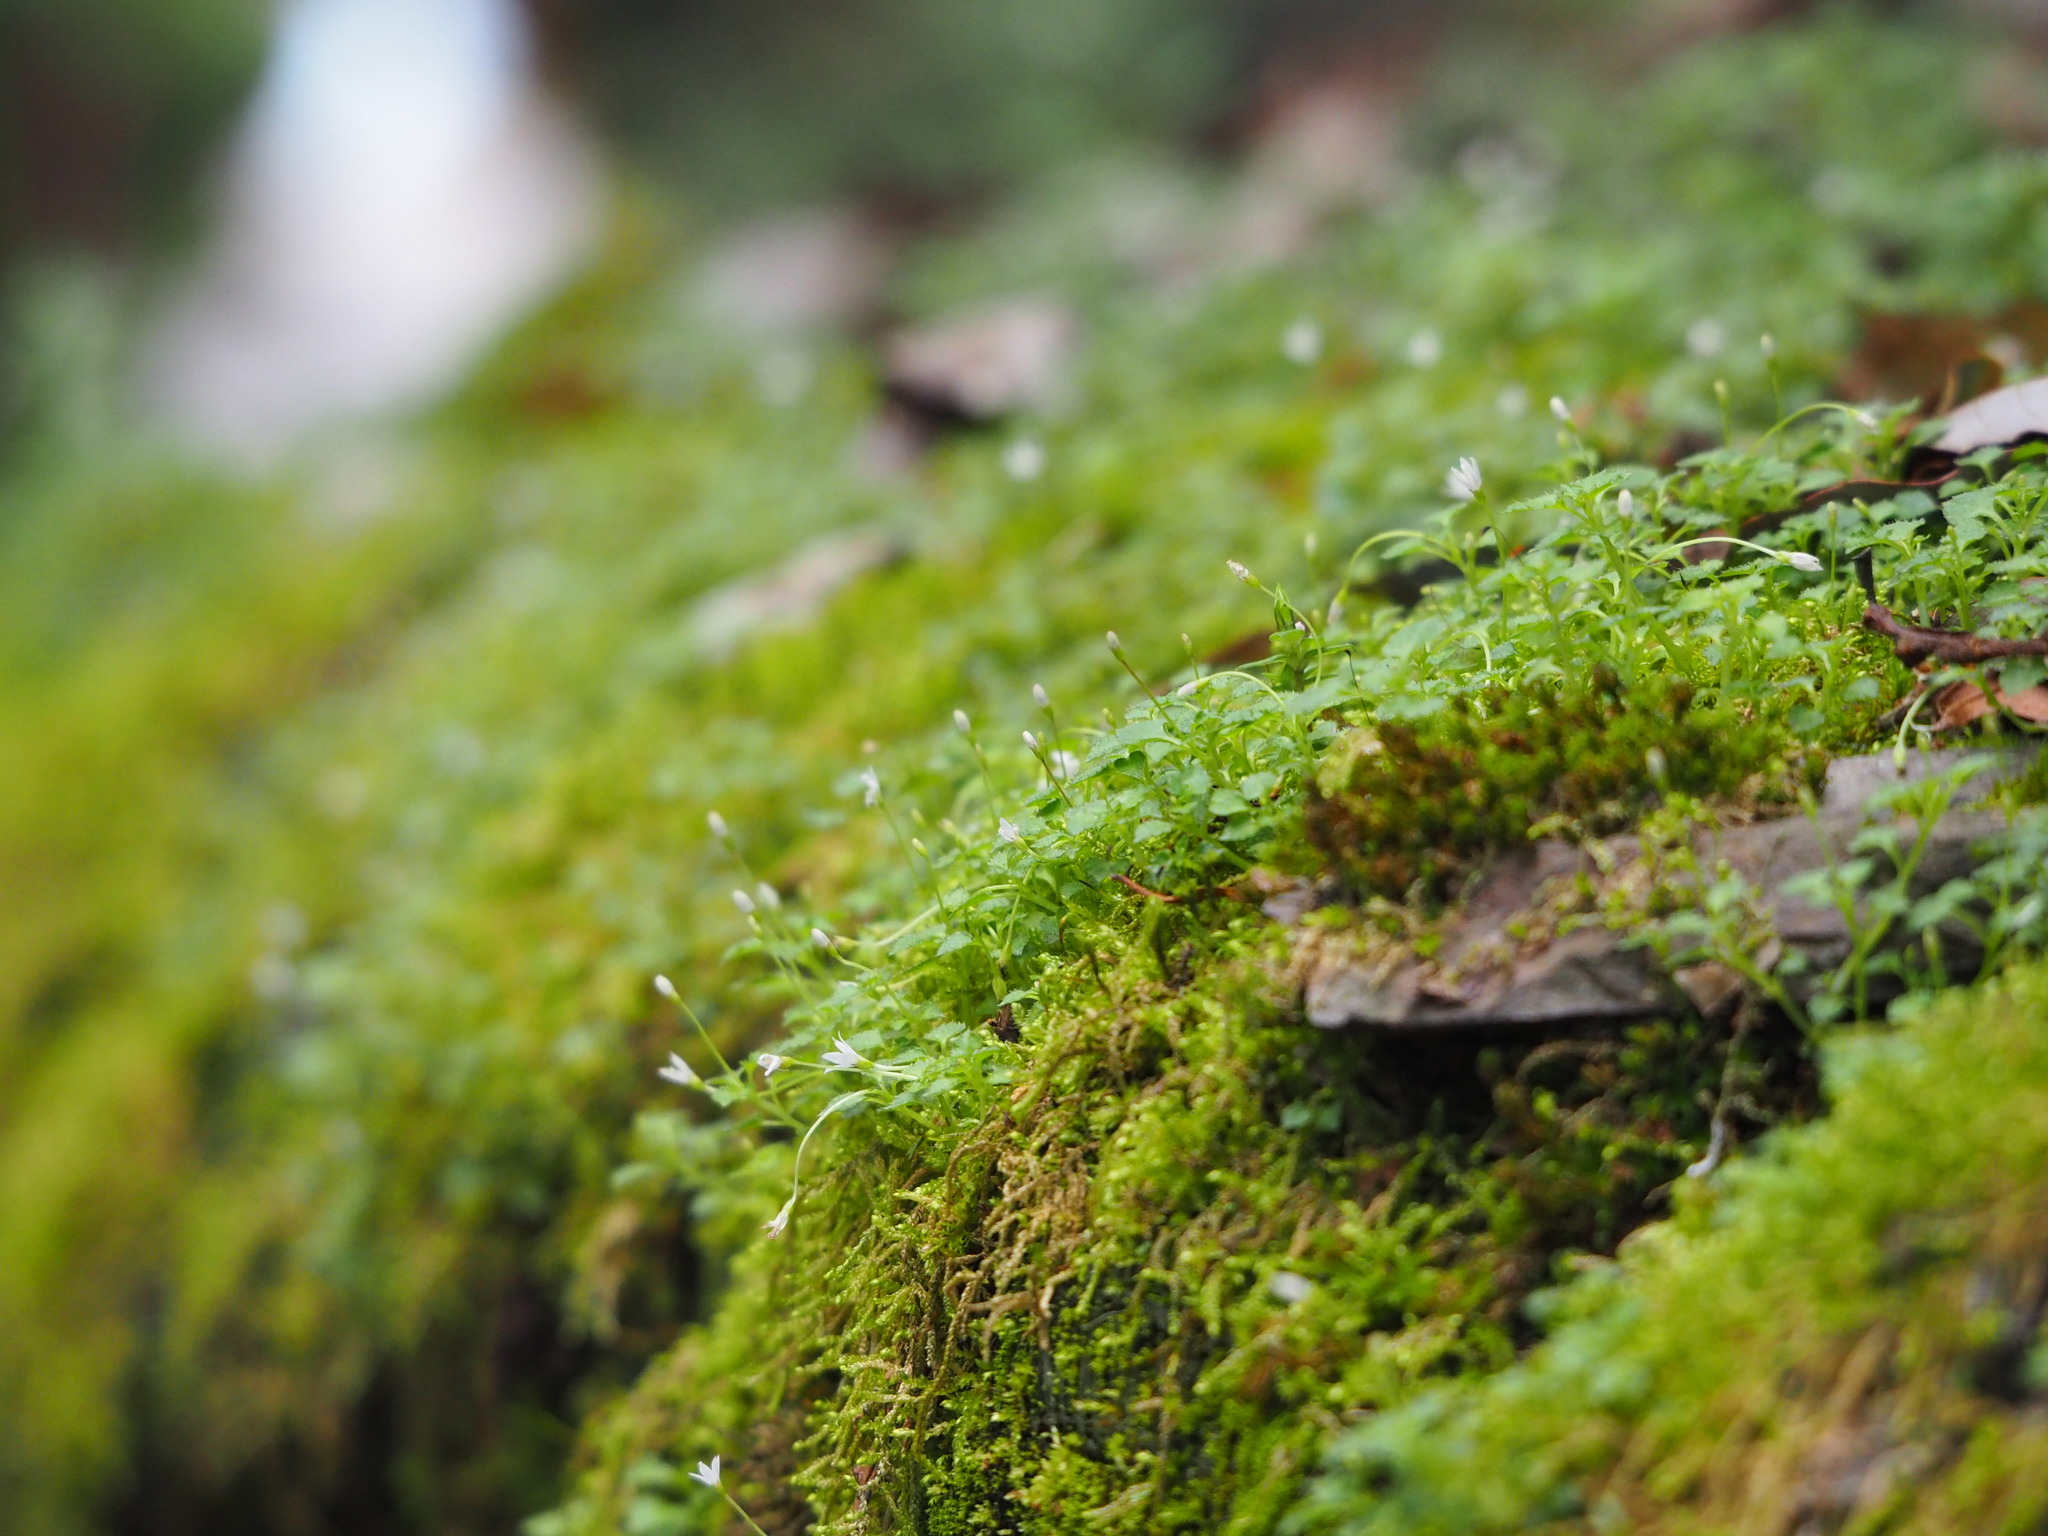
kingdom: Plantae
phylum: Tracheophyta
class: Magnoliopsida
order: Asterales
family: Campanulaceae
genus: Peracarpa
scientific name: Peracarpa carnosa
